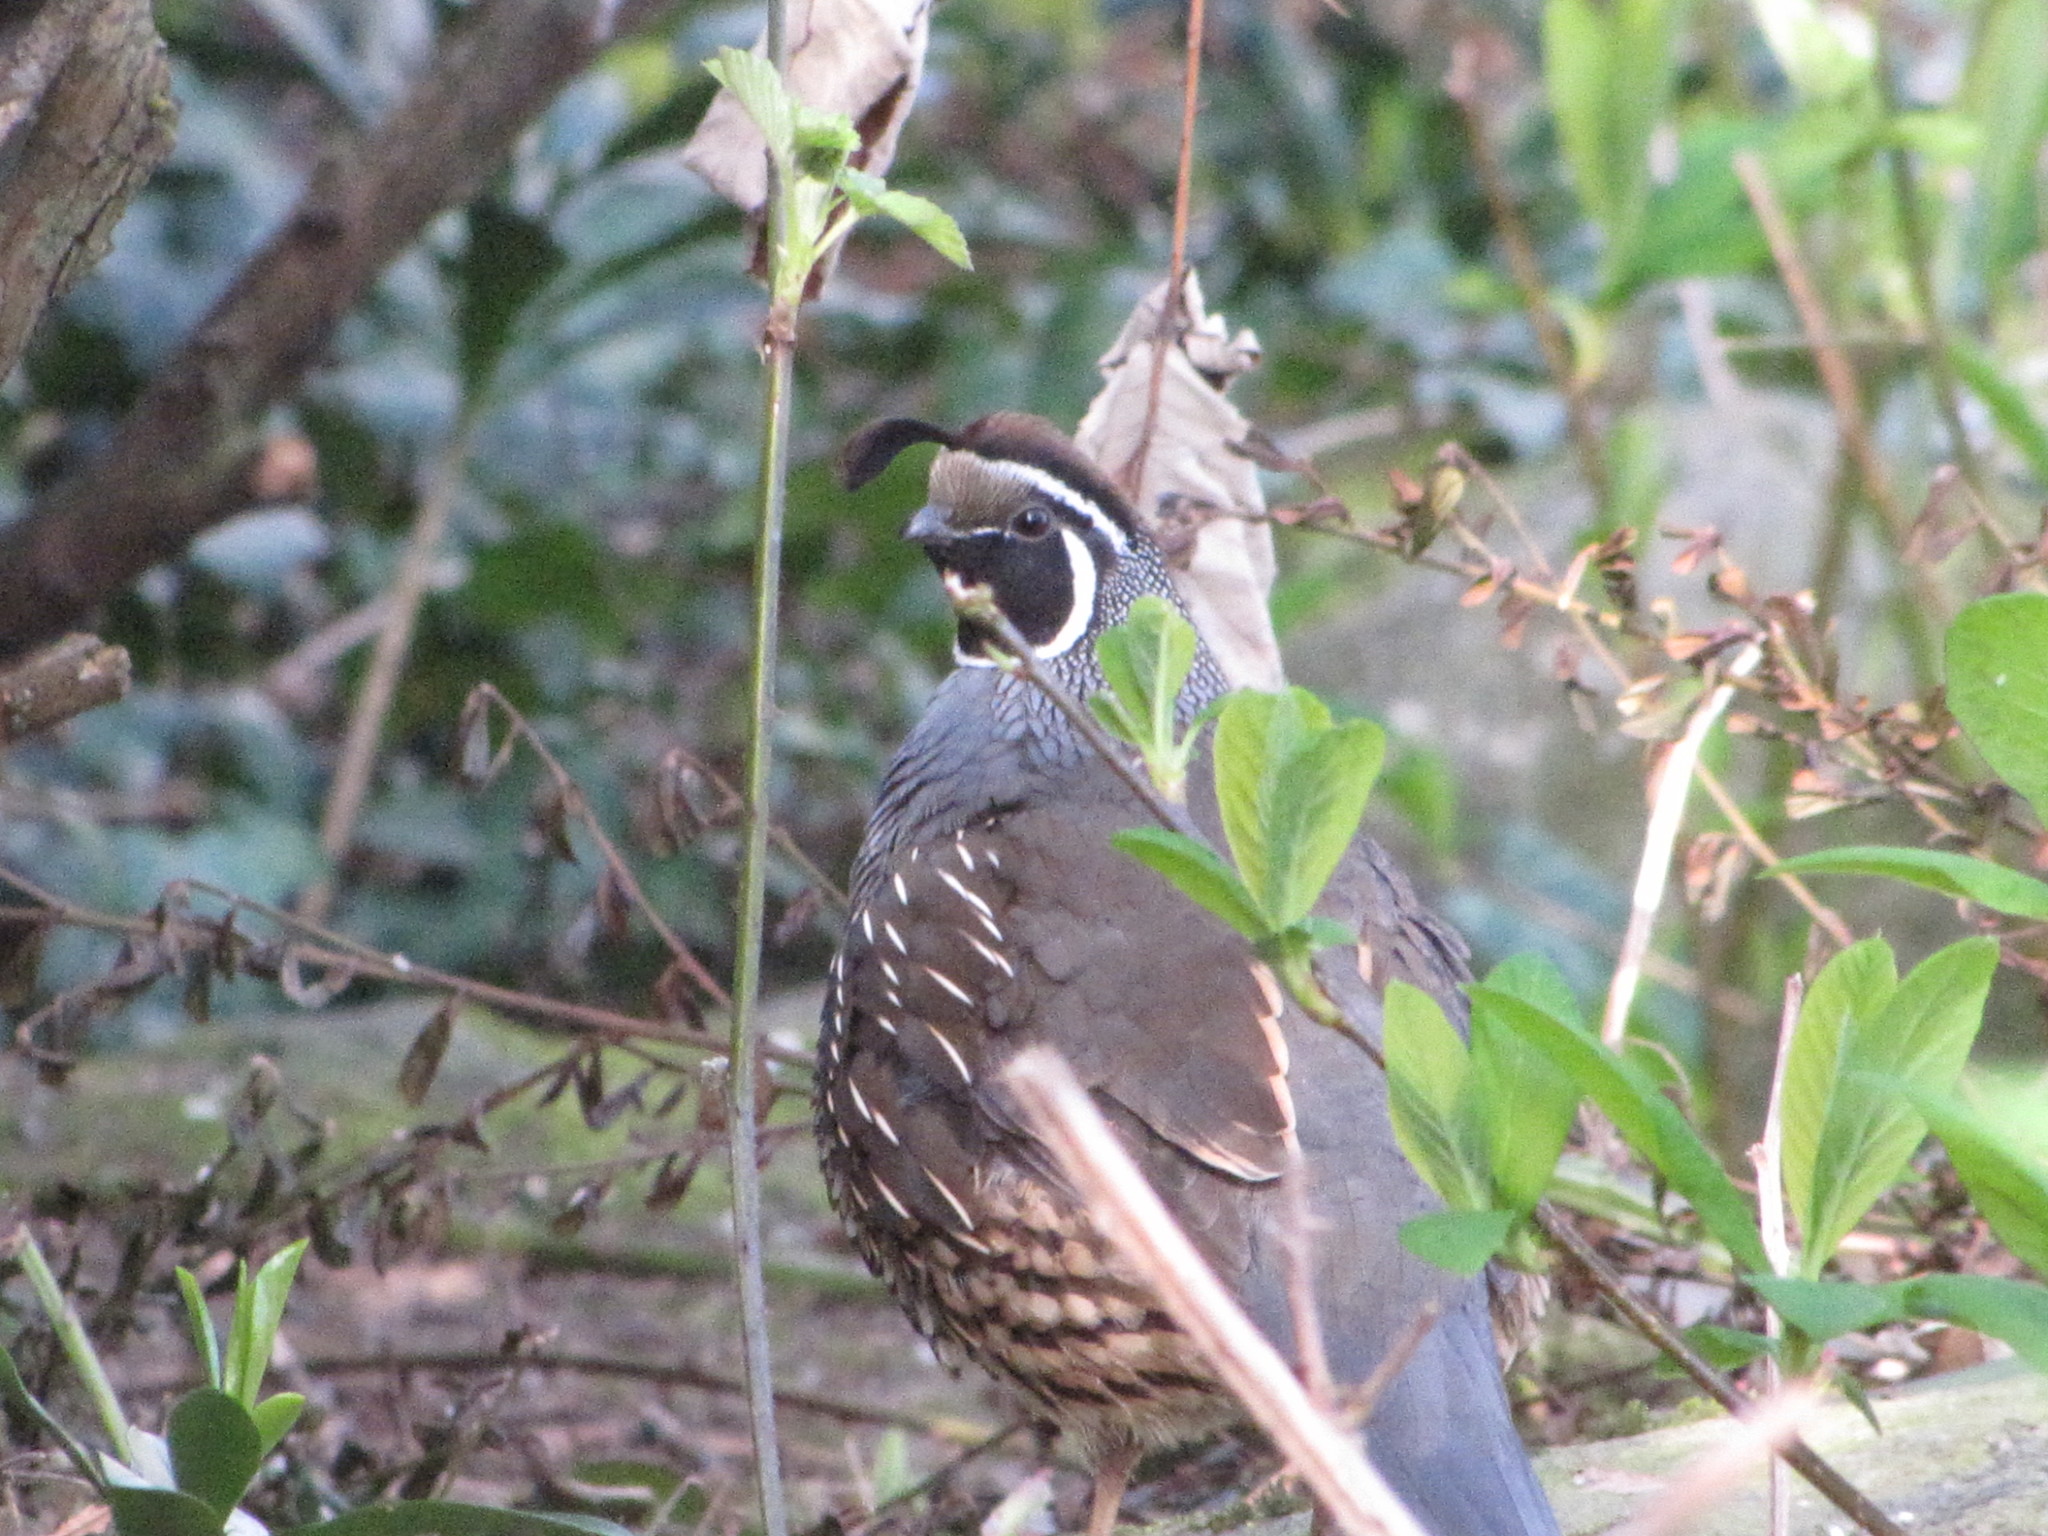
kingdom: Animalia
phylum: Chordata
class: Aves
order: Galliformes
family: Odontophoridae
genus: Callipepla
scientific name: Callipepla californica
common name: California quail
